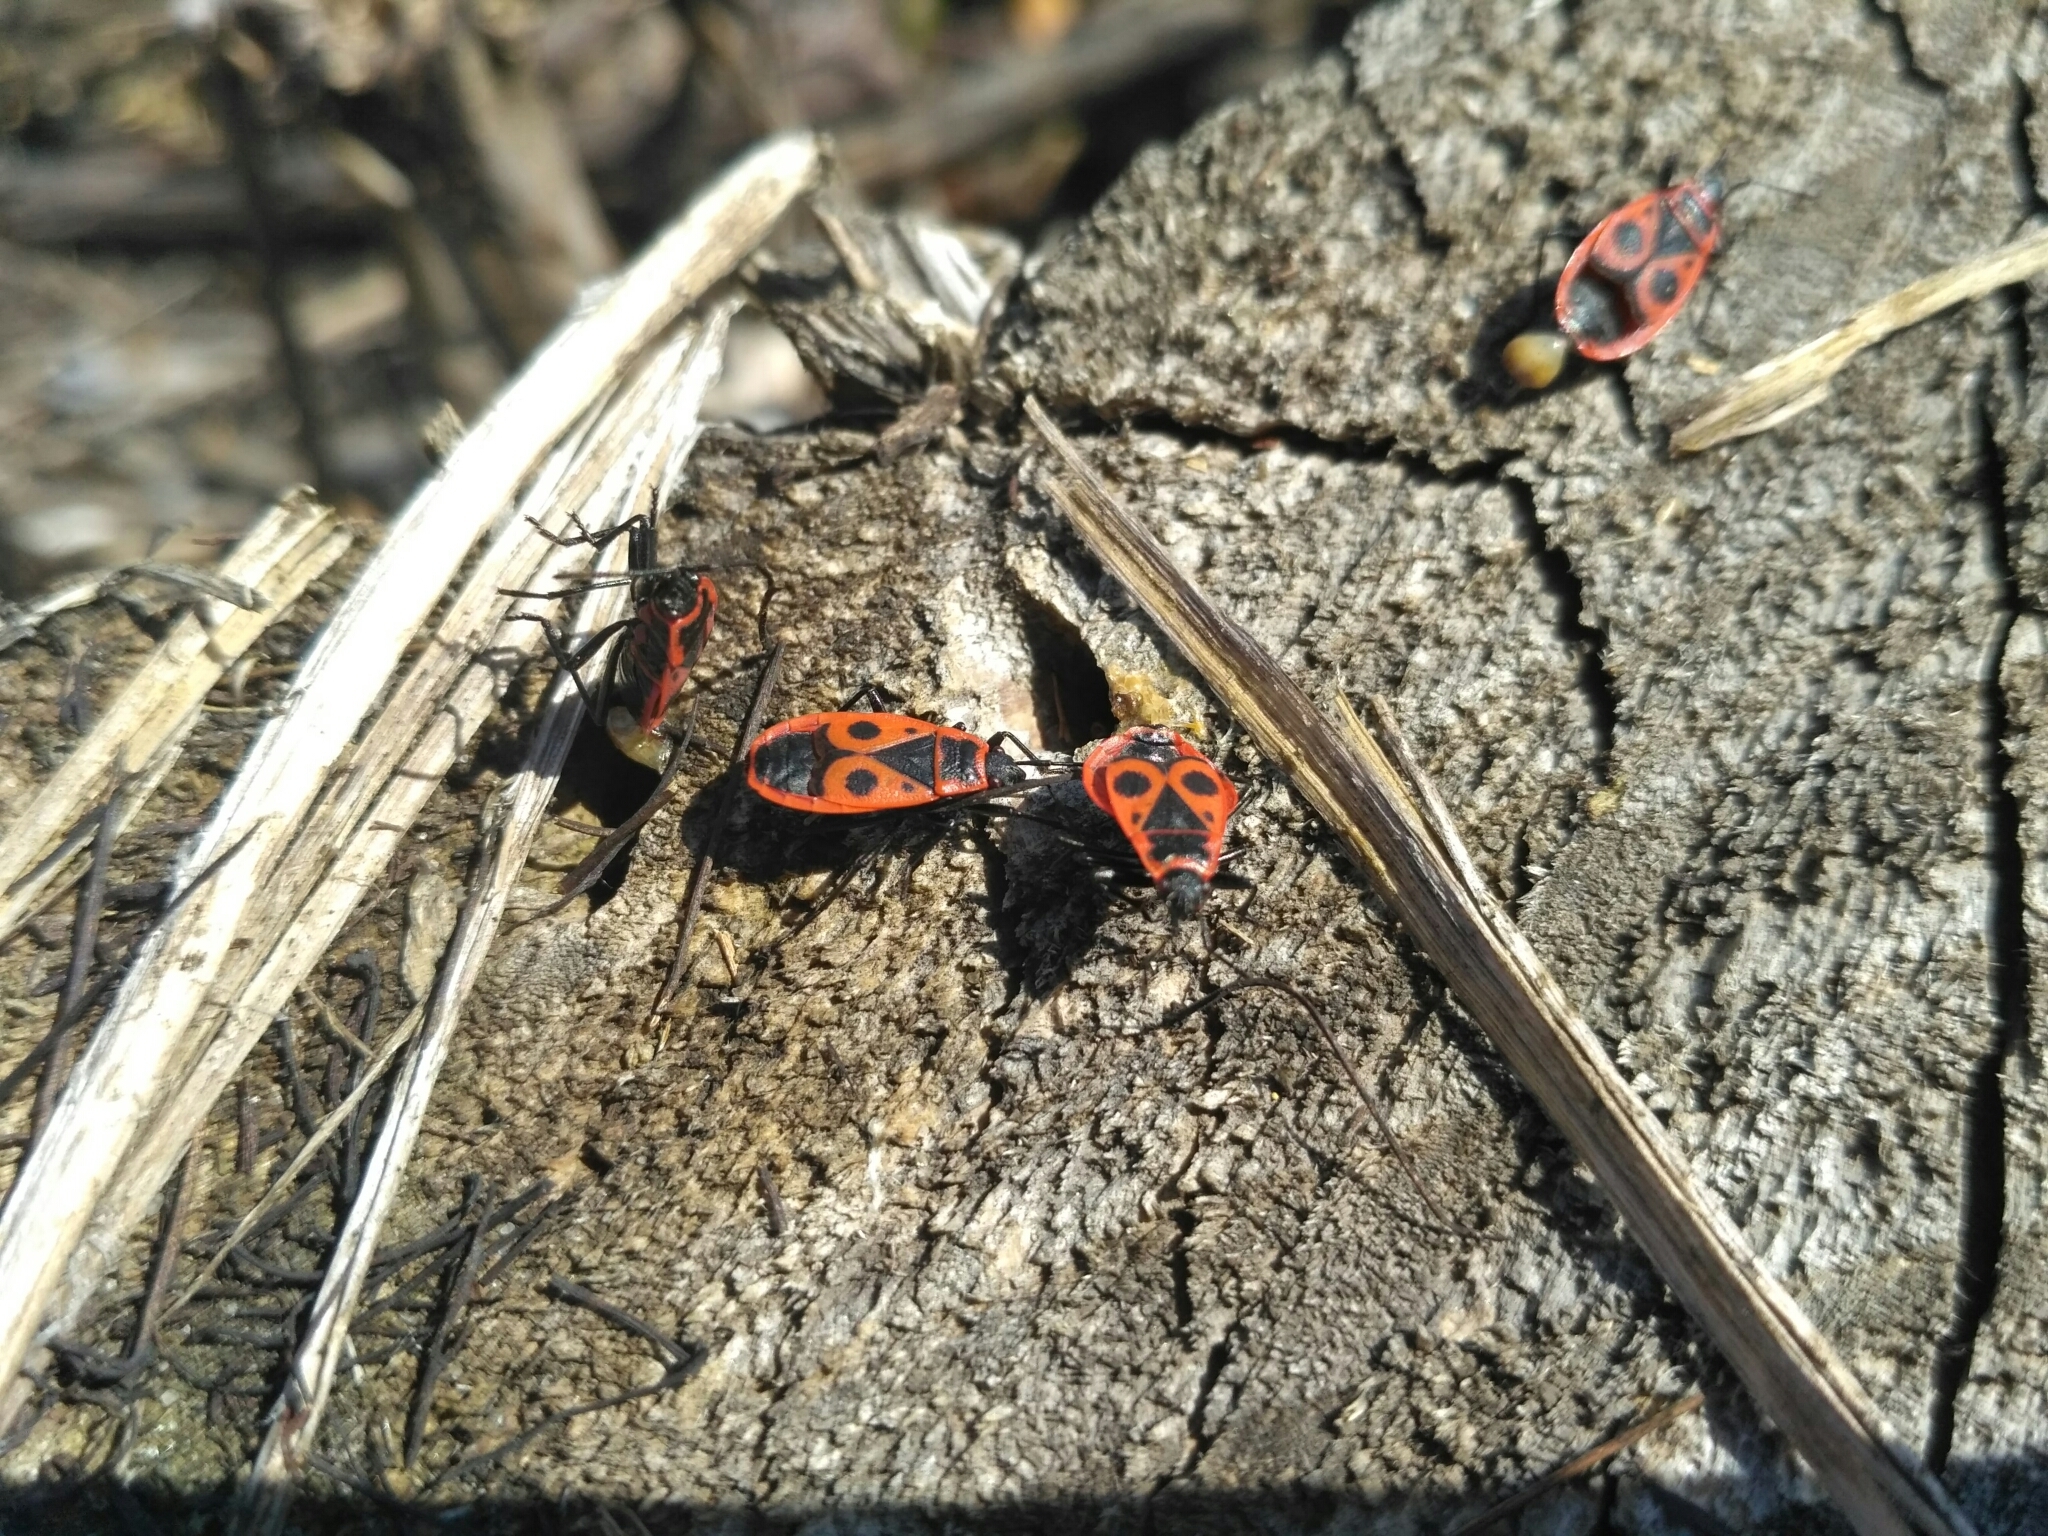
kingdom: Animalia
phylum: Arthropoda
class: Insecta
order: Hemiptera
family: Pyrrhocoridae
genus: Pyrrhocoris
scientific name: Pyrrhocoris apterus
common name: Firebug
